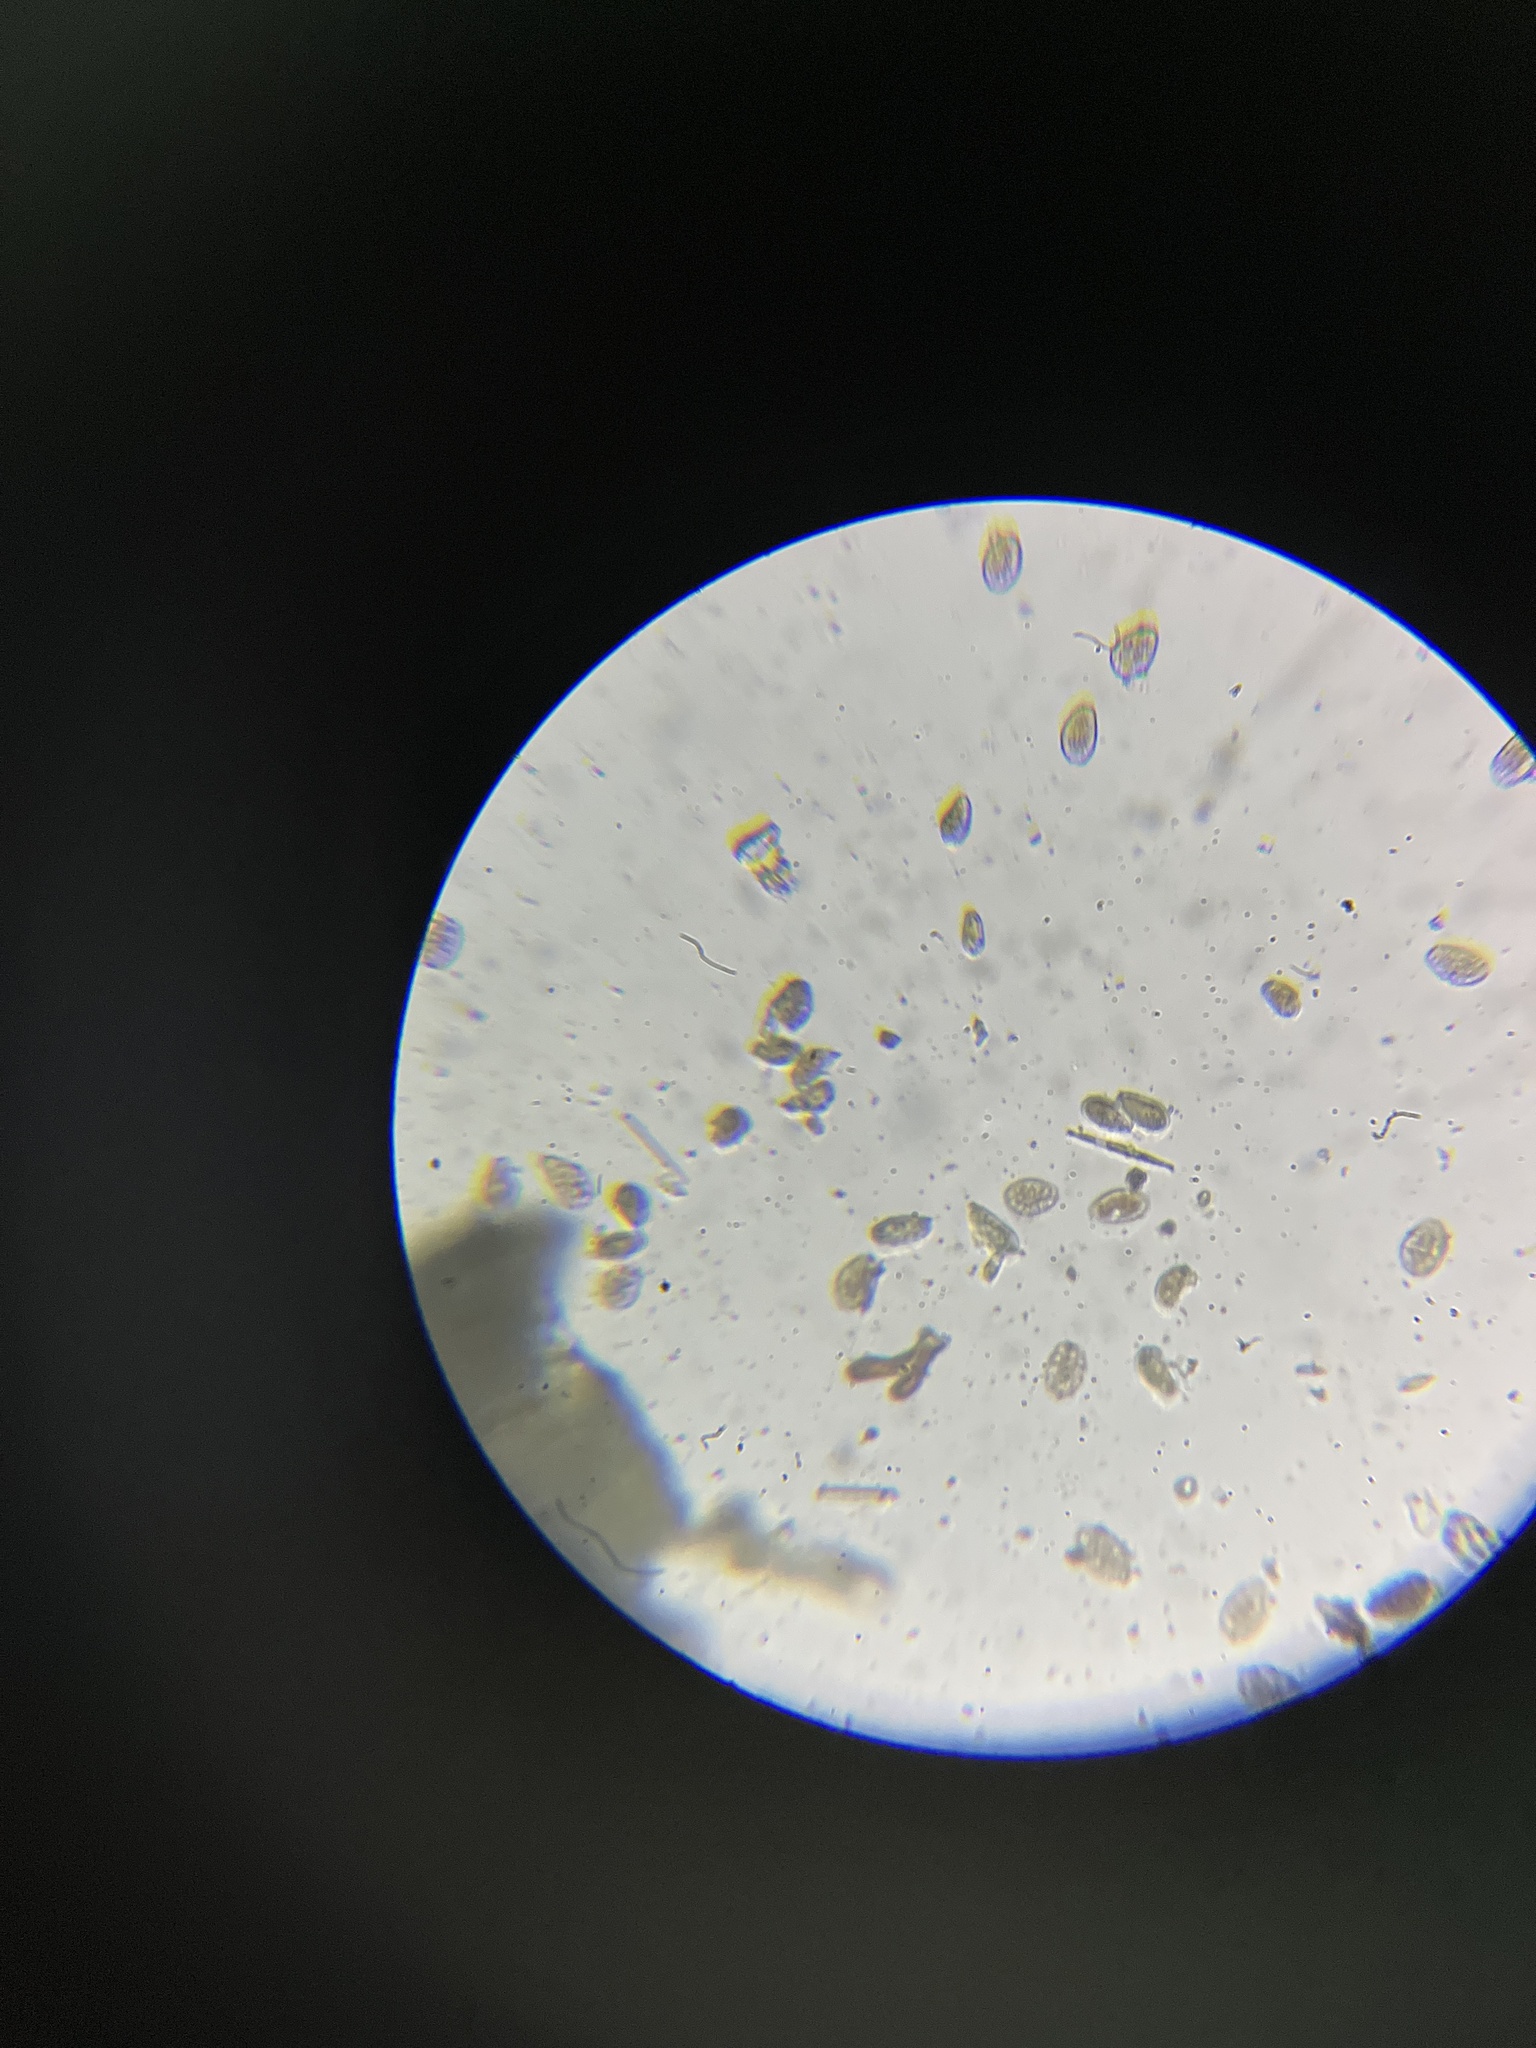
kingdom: Fungi
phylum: Basidiomycota
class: Pucciniomycetes
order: Pucciniales
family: Pucciniaceae
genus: Peristemma
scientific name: Peristemma pseudosphaeria
